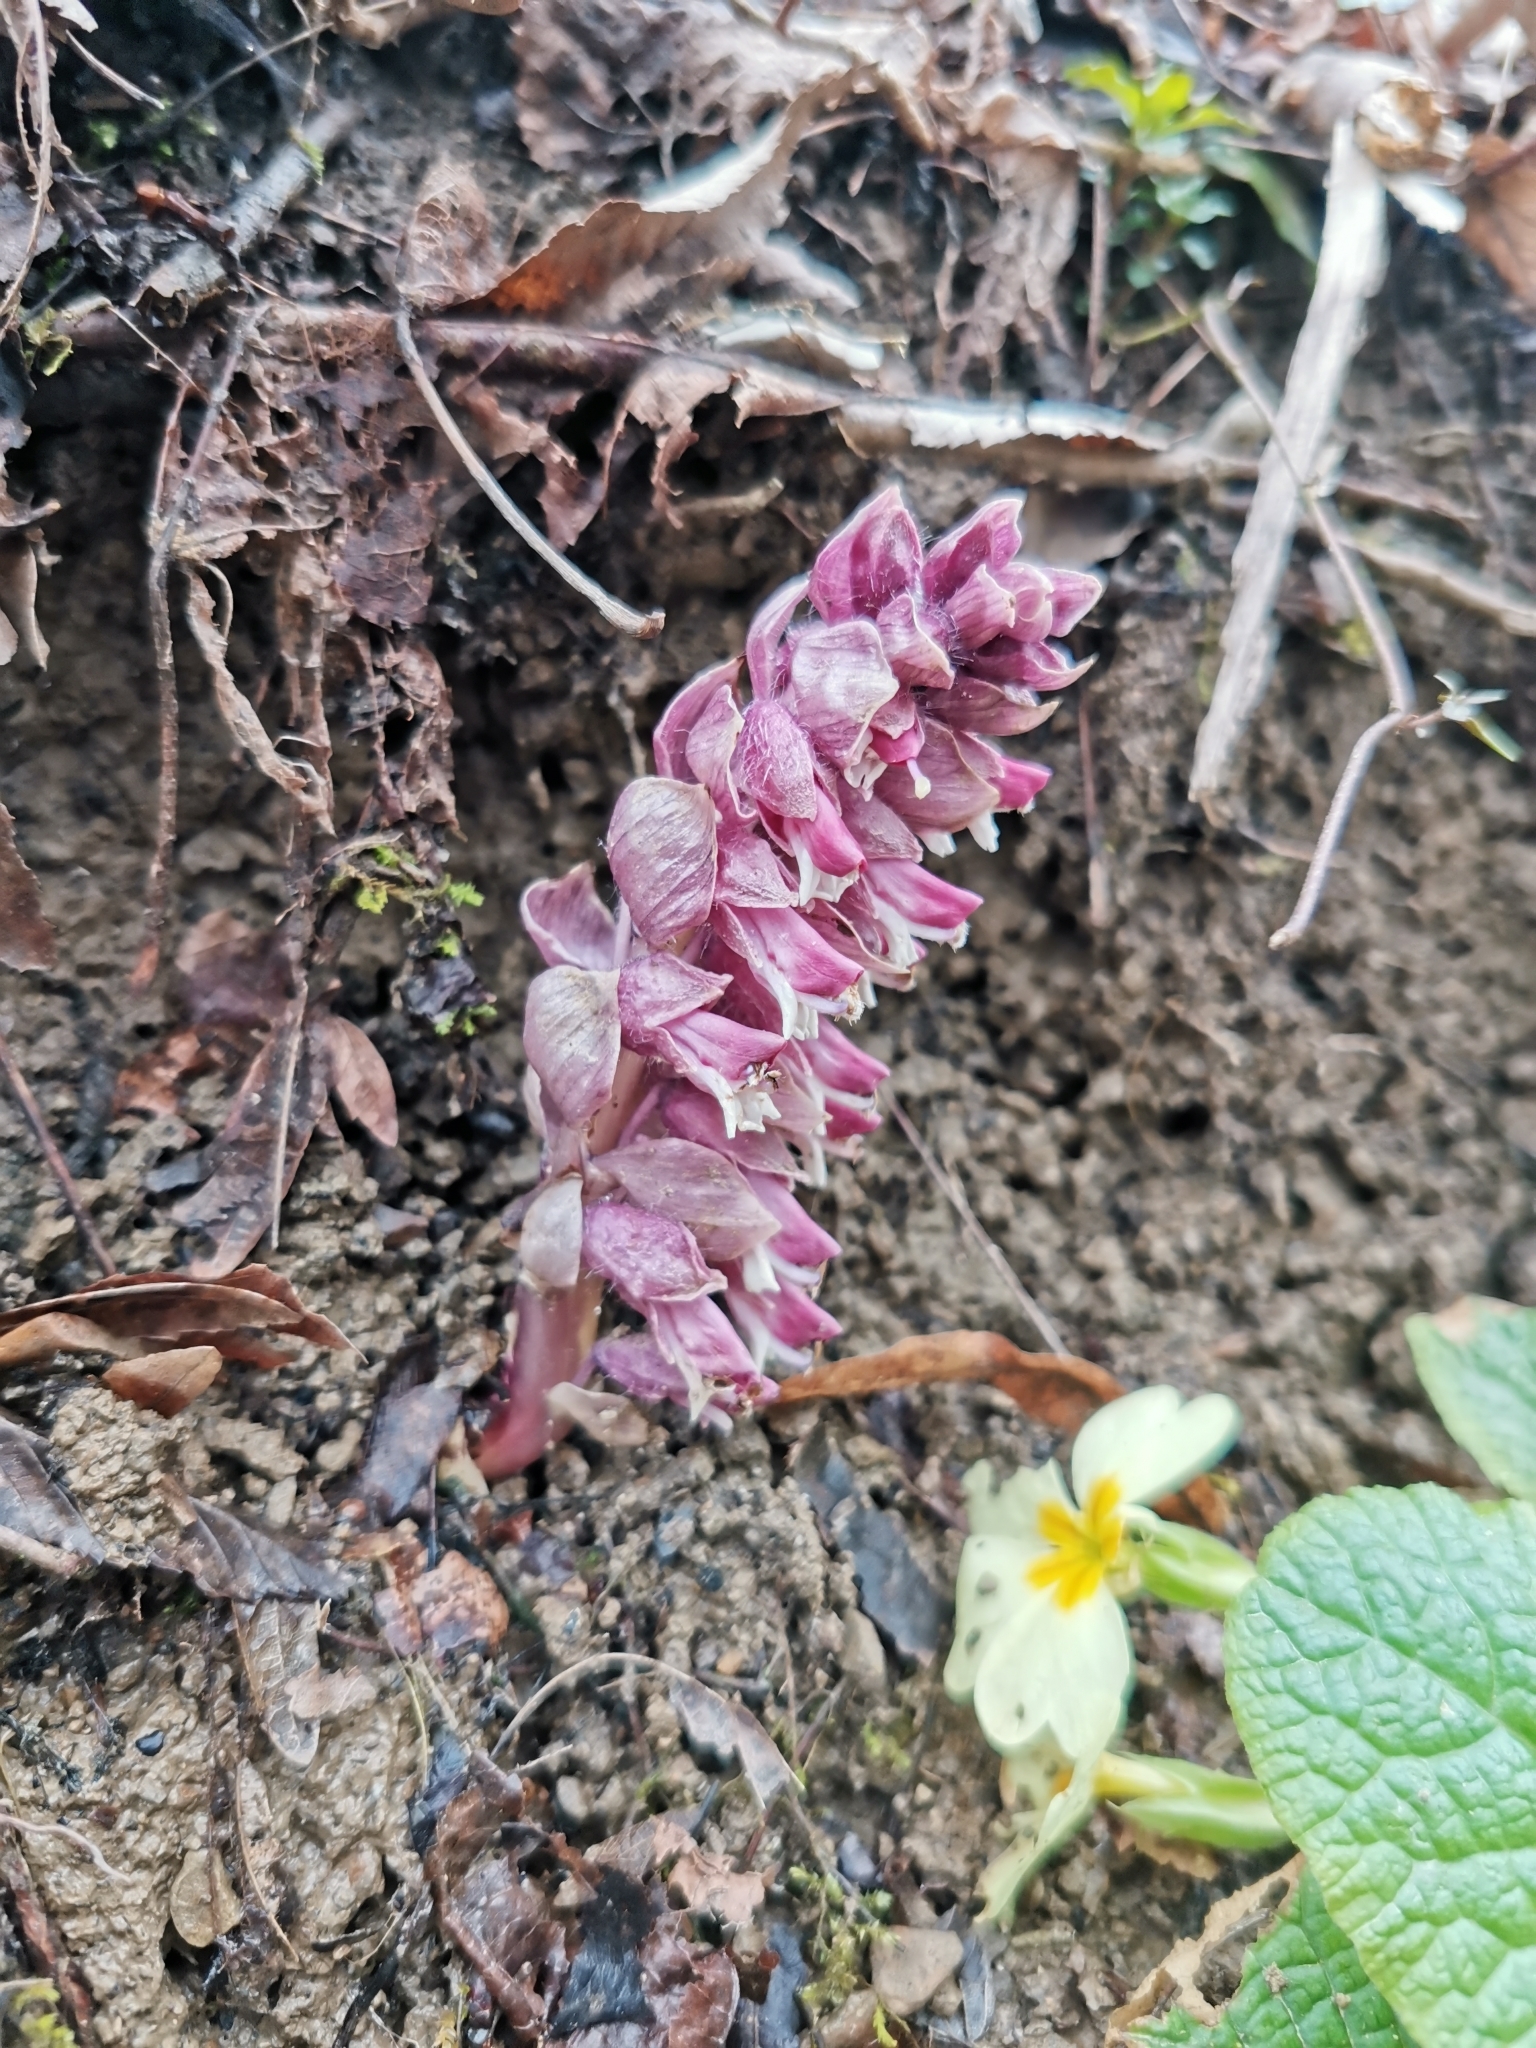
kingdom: Plantae
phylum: Tracheophyta
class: Magnoliopsida
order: Lamiales
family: Orobanchaceae
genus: Lathraea
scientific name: Lathraea squamaria
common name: Toothwort
